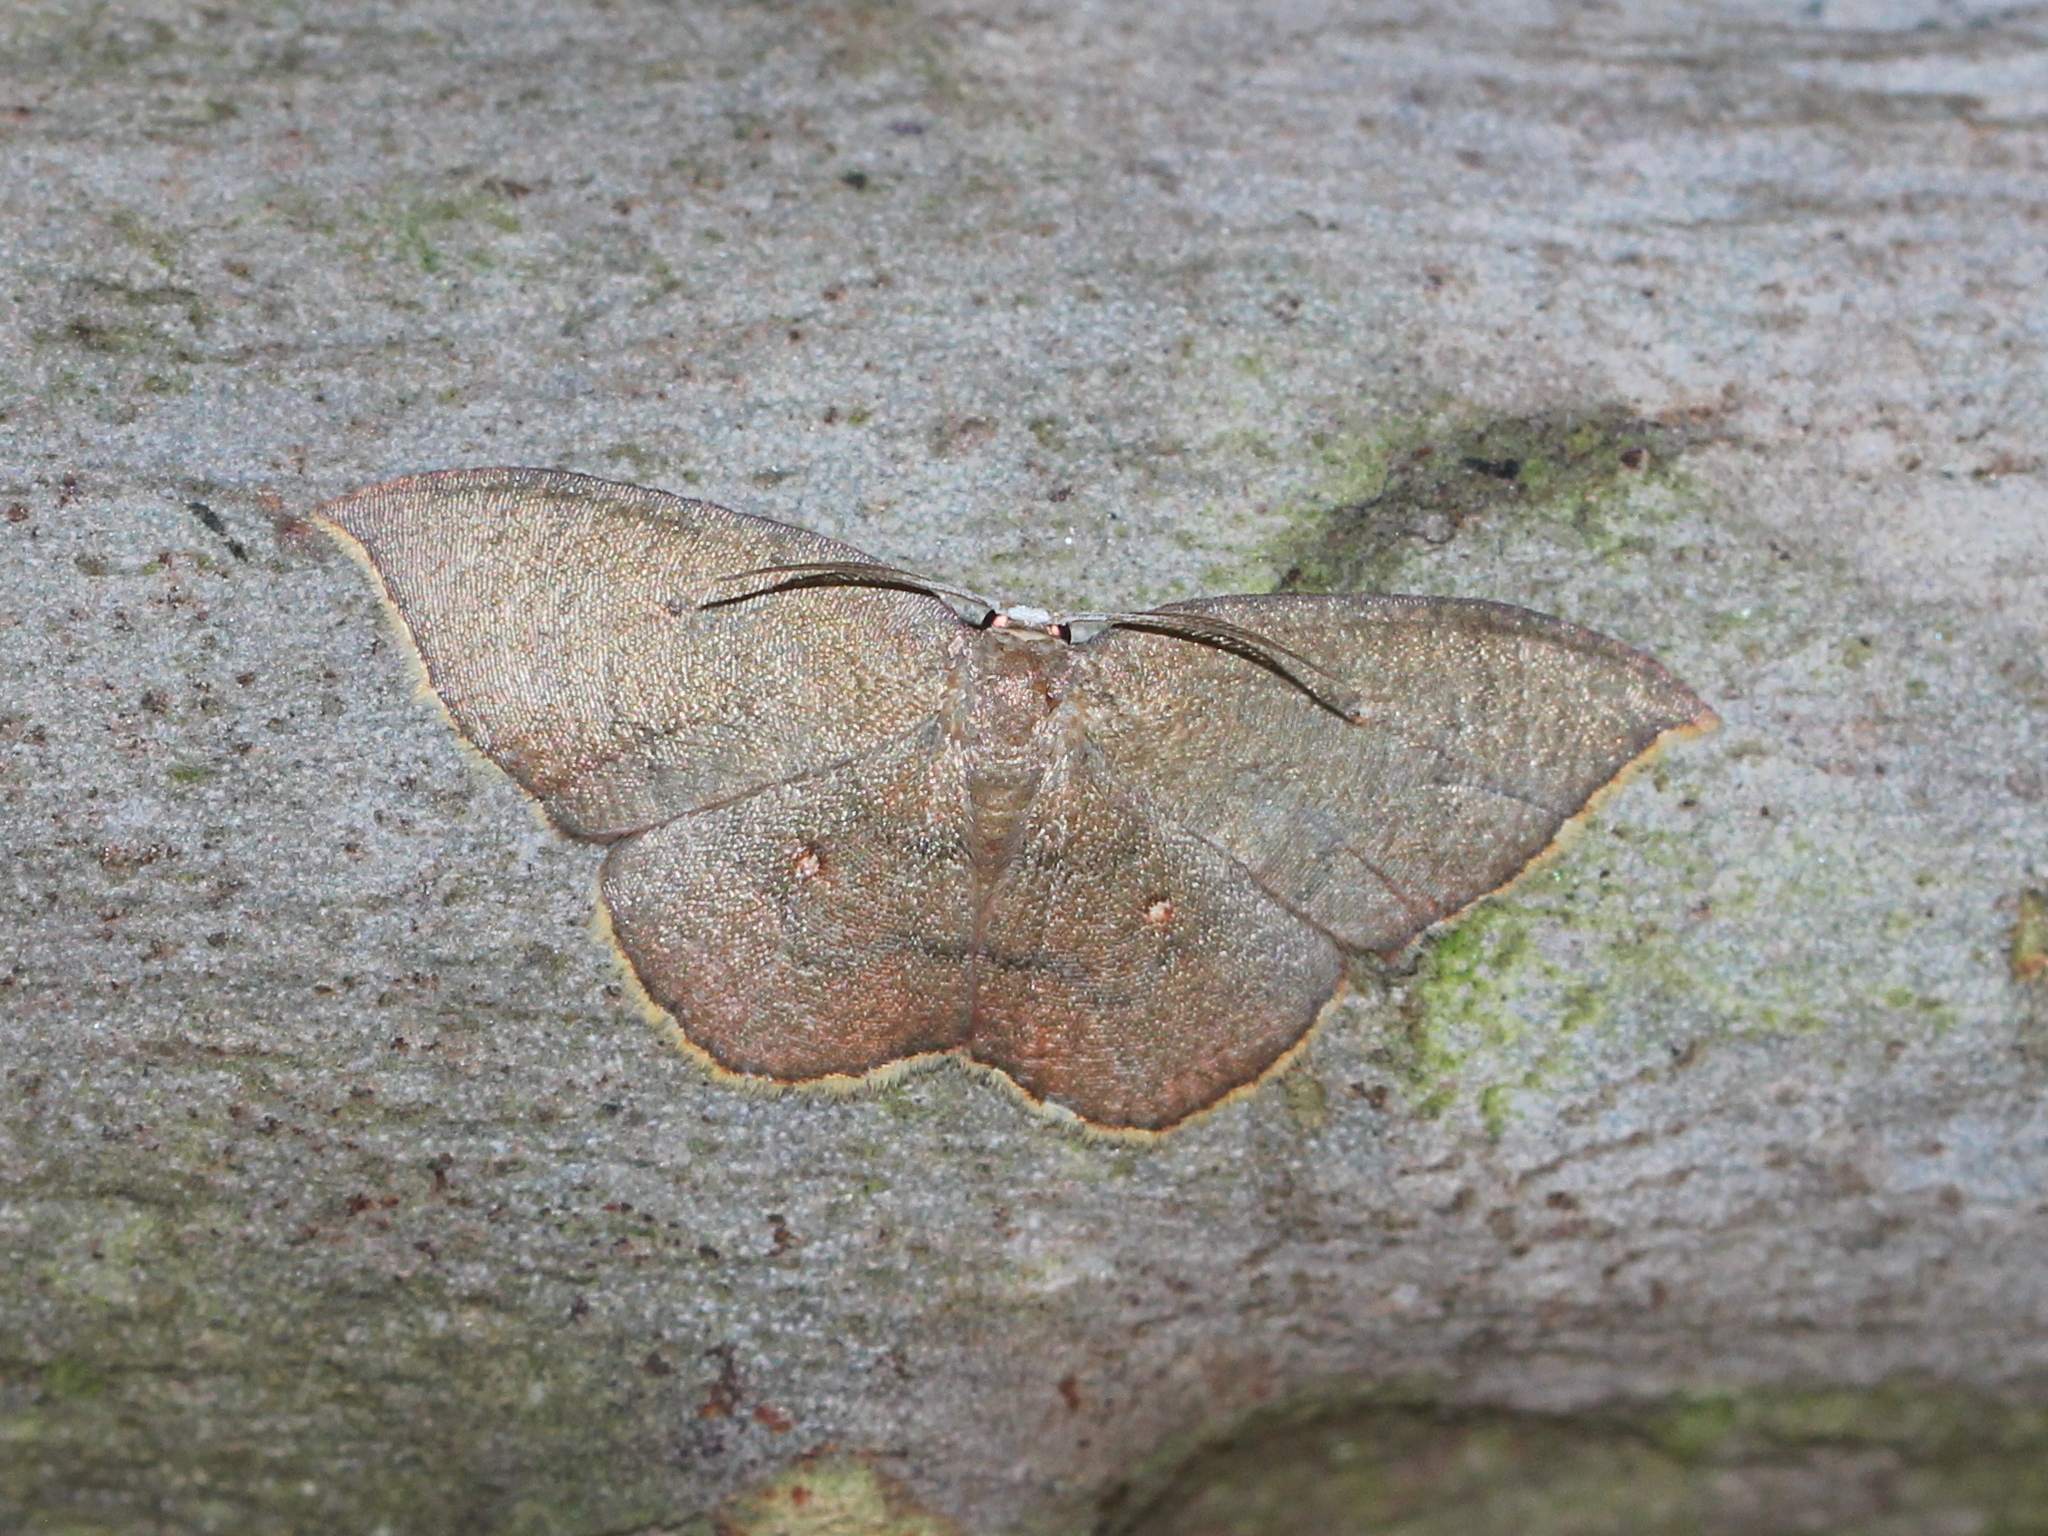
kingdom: Animalia
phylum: Arthropoda
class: Insecta
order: Lepidoptera
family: Uraniidae
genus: Pseudhyria
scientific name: Pseudhyria rubra
